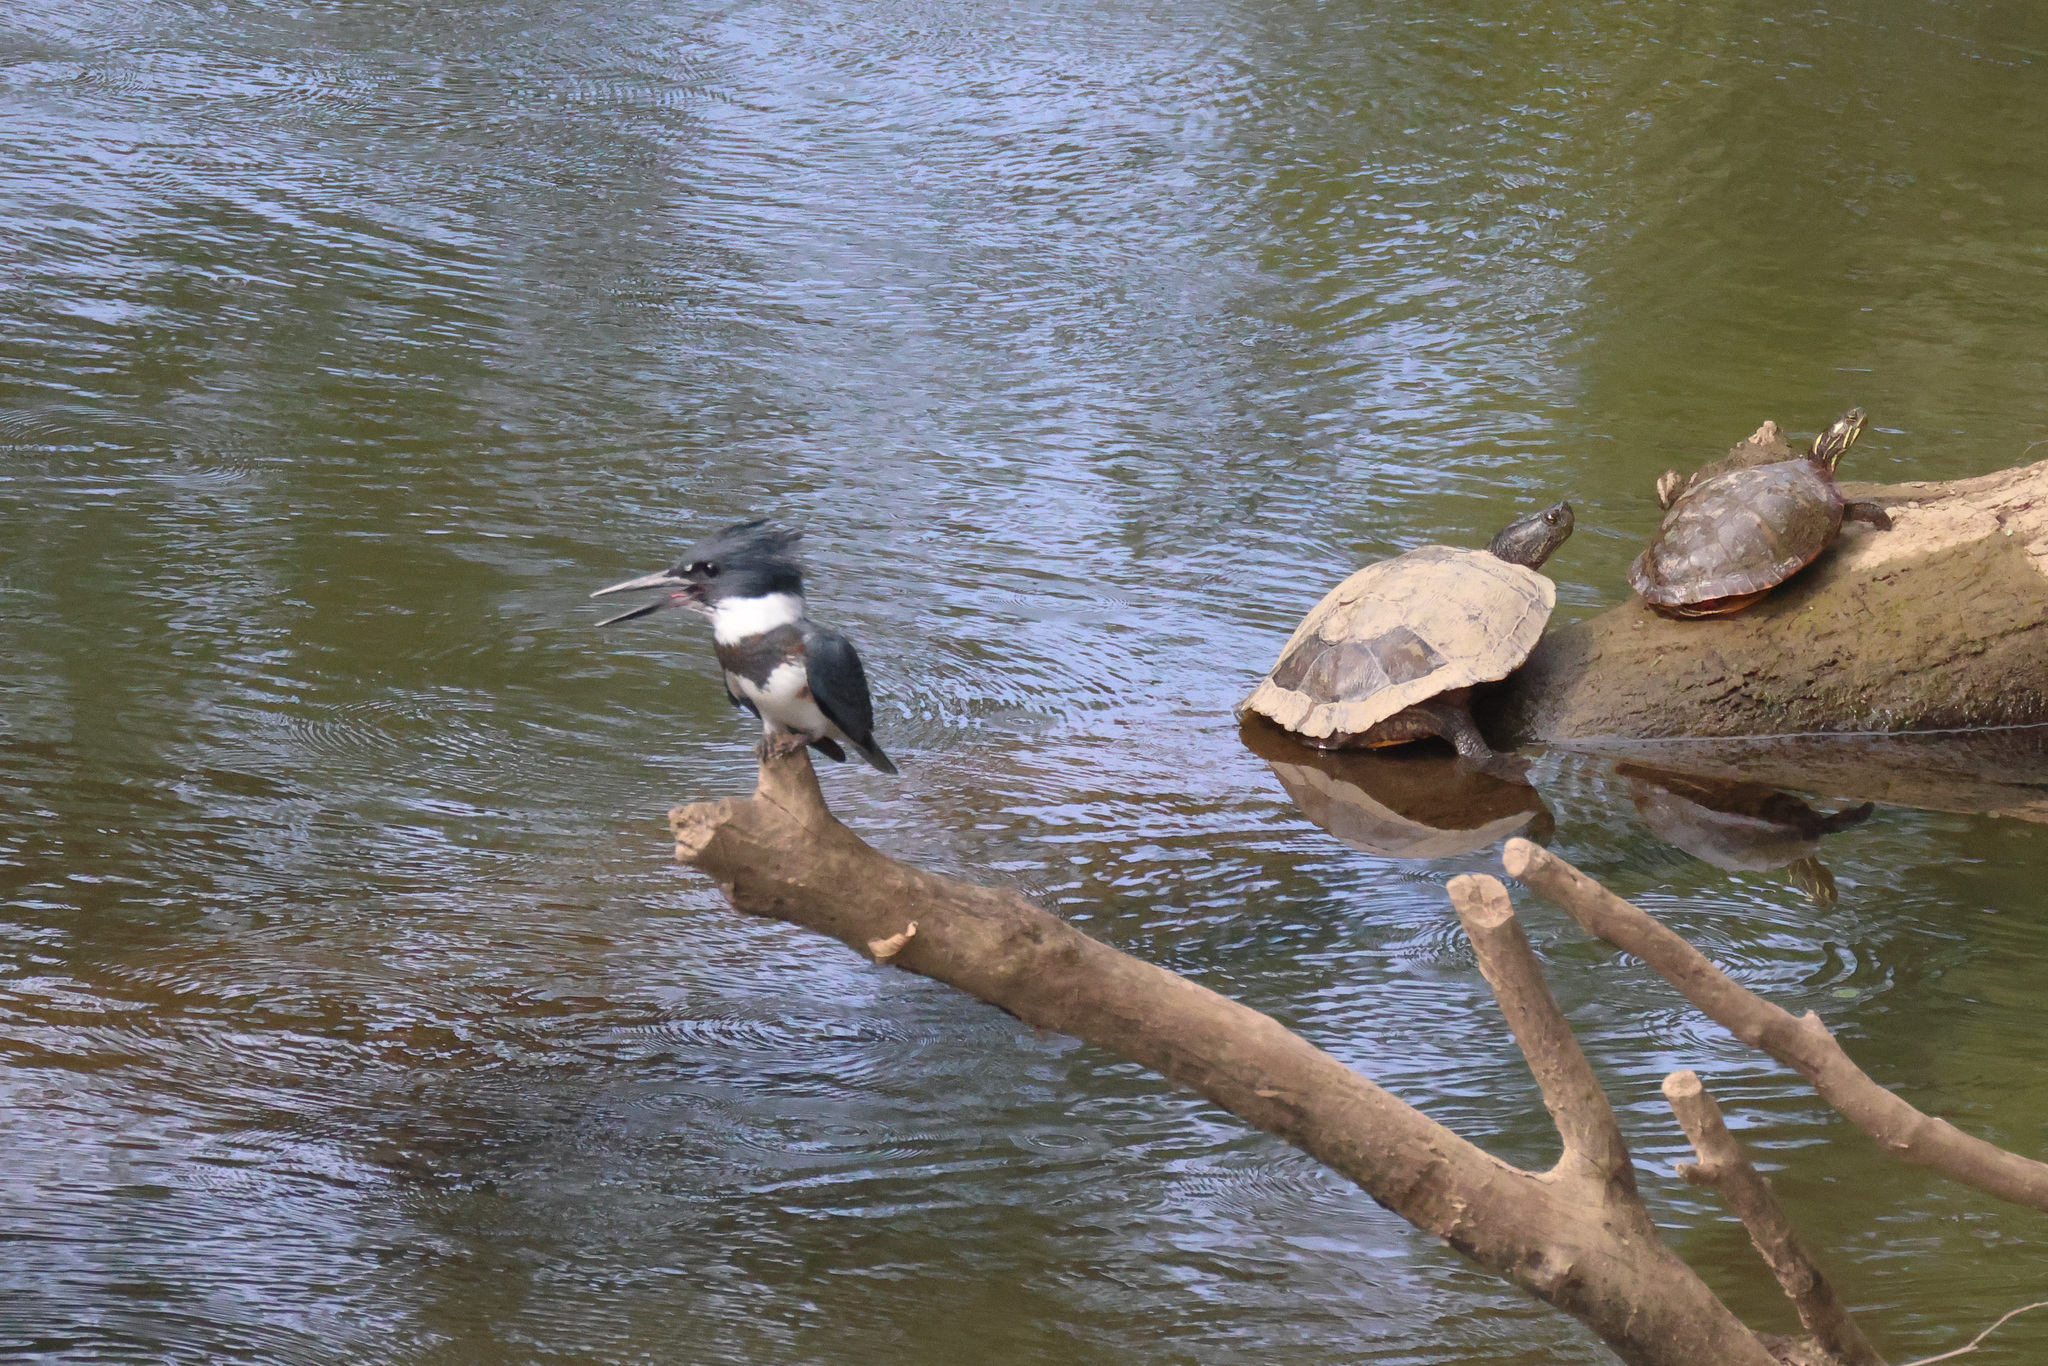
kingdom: Animalia
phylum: Chordata
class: Aves
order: Coraciiformes
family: Alcedinidae
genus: Megaceryle
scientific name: Megaceryle alcyon
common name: Belted kingfisher
